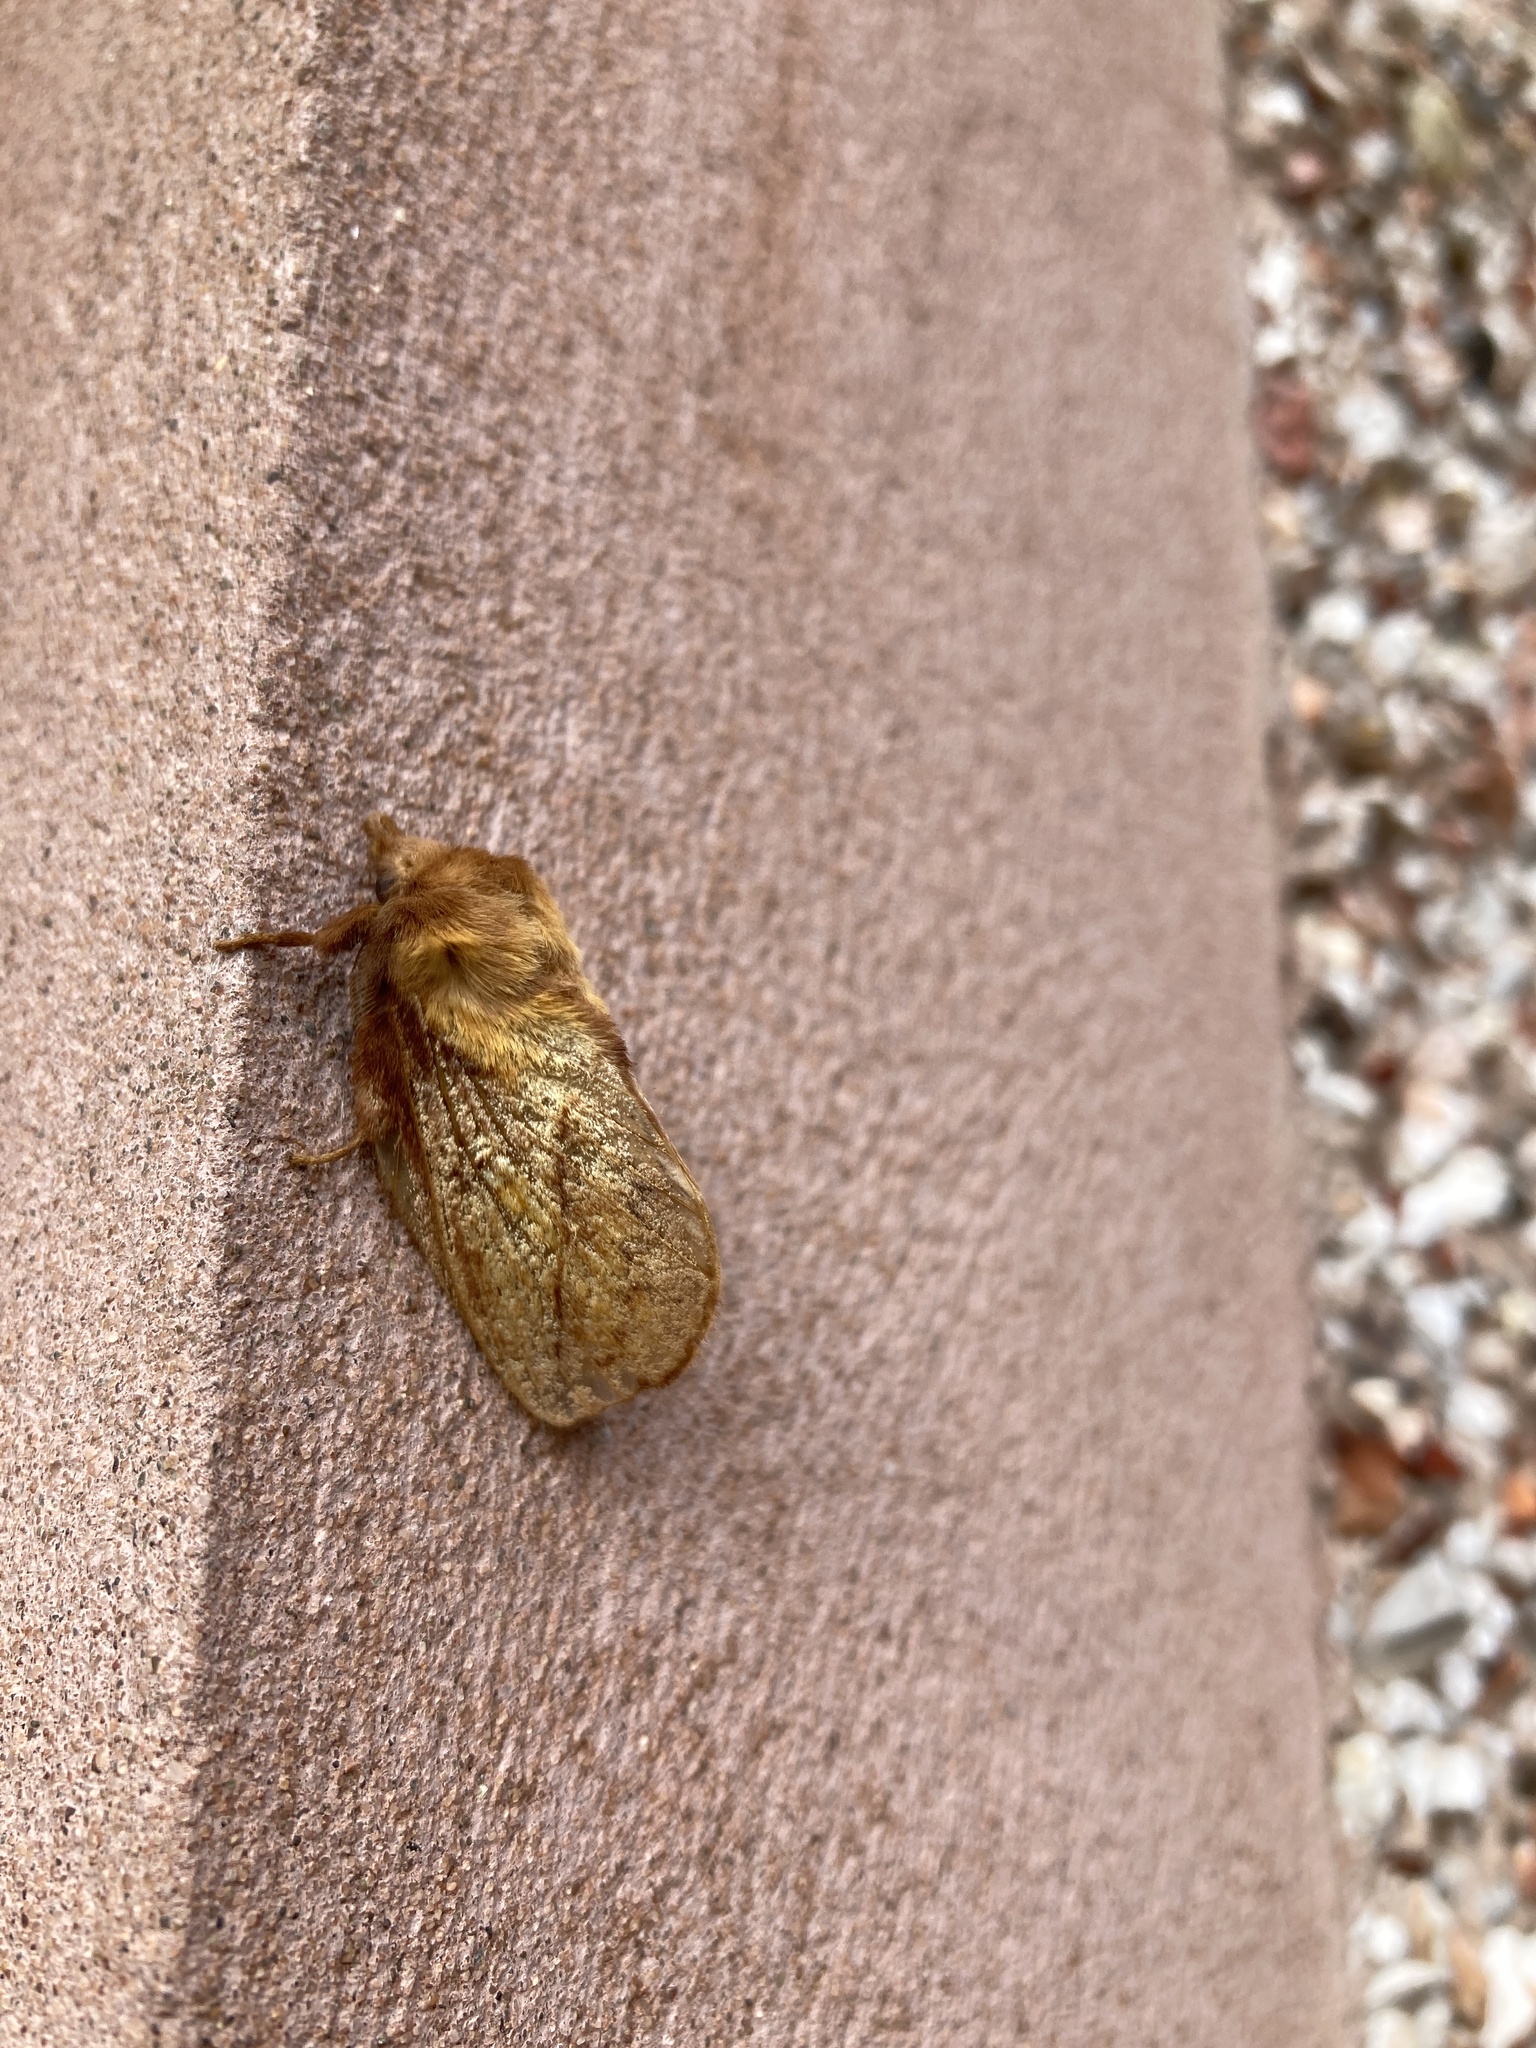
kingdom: Animalia
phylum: Arthropoda
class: Insecta
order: Lepidoptera
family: Lasiocampidae
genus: Euthrix
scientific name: Euthrix potatoria
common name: Drinker
